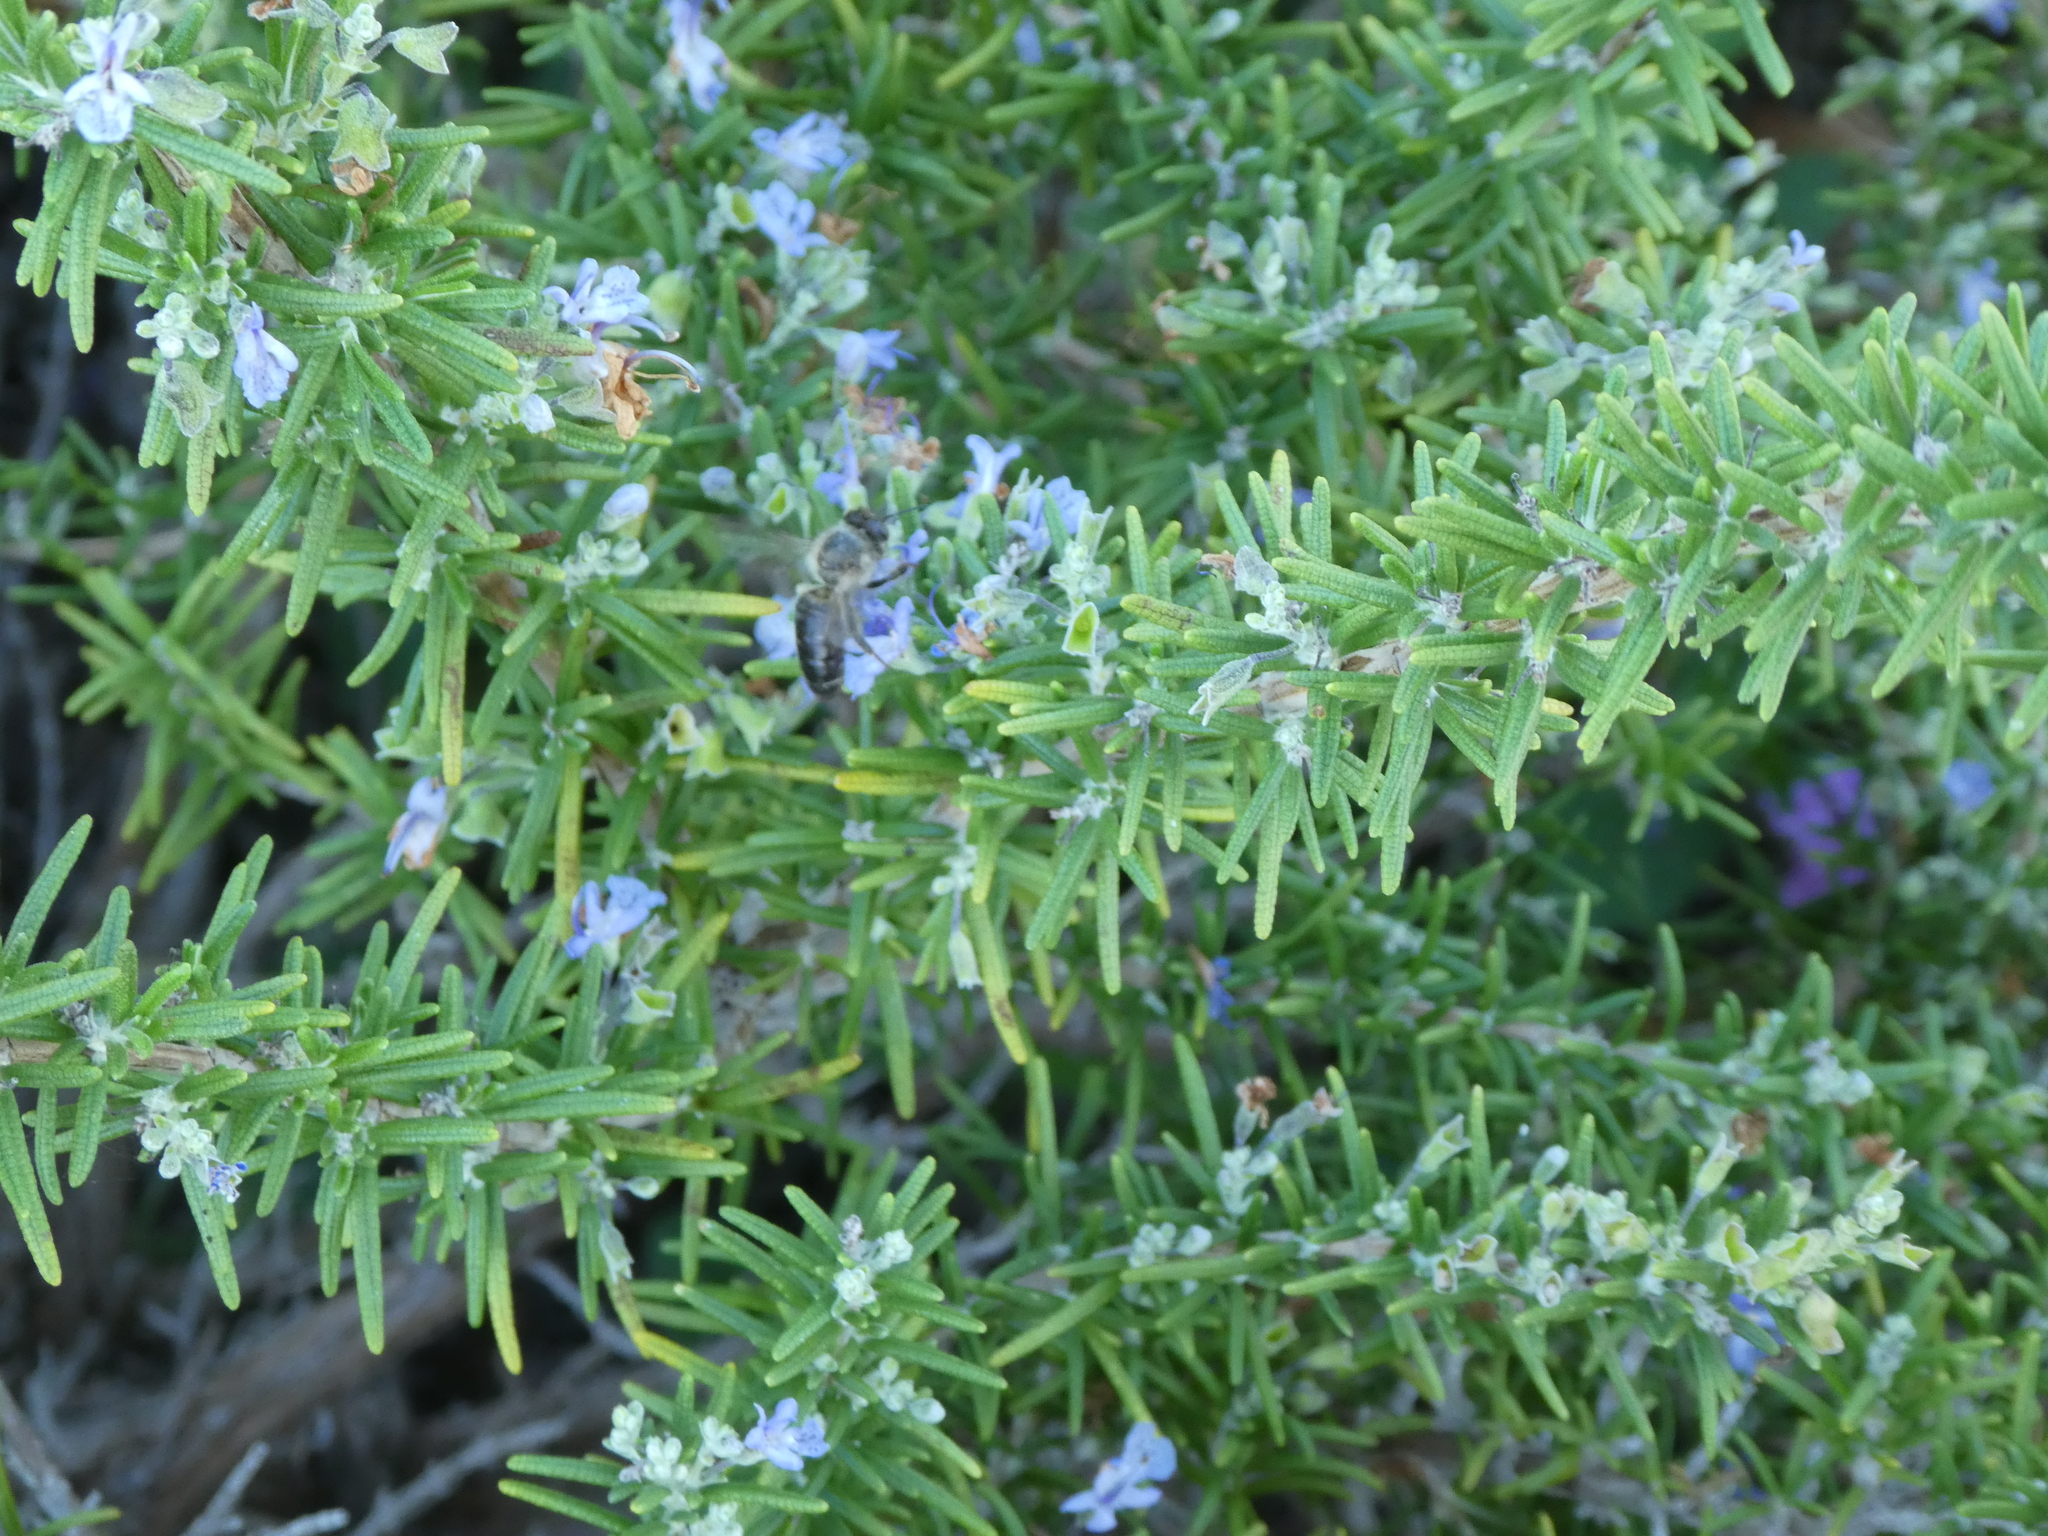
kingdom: Animalia
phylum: Arthropoda
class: Insecta
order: Hymenoptera
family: Apidae
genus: Apis
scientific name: Apis mellifera
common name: Honey bee
